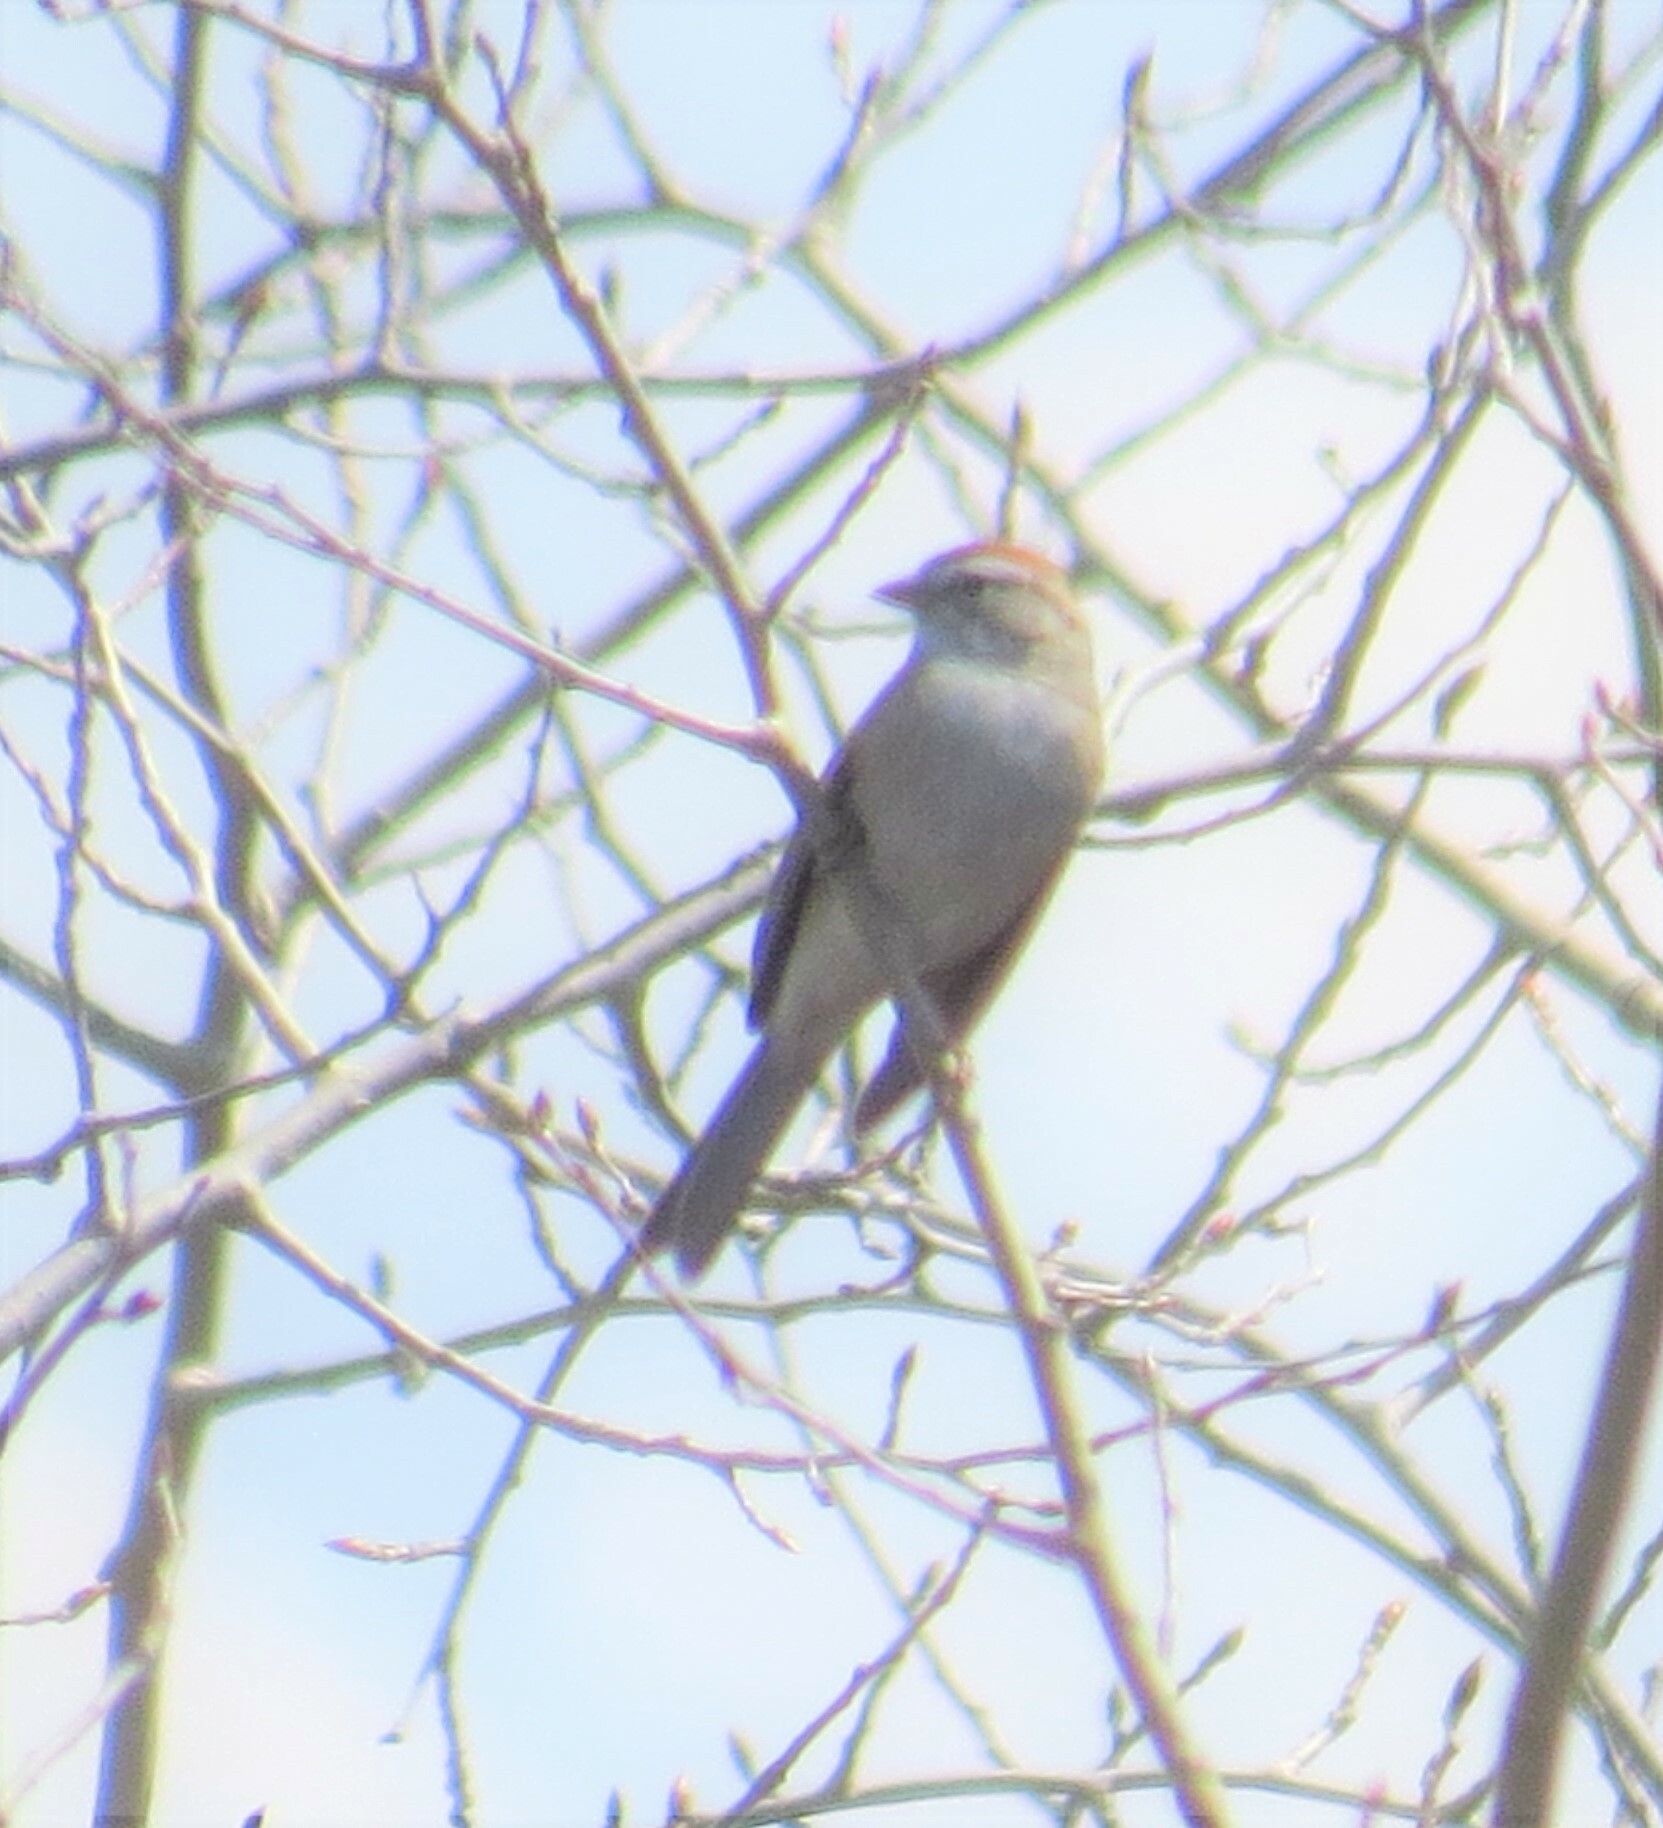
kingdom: Animalia
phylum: Chordata
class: Aves
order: Passeriformes
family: Passerellidae
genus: Spizella
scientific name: Spizella passerina
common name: Chipping sparrow
